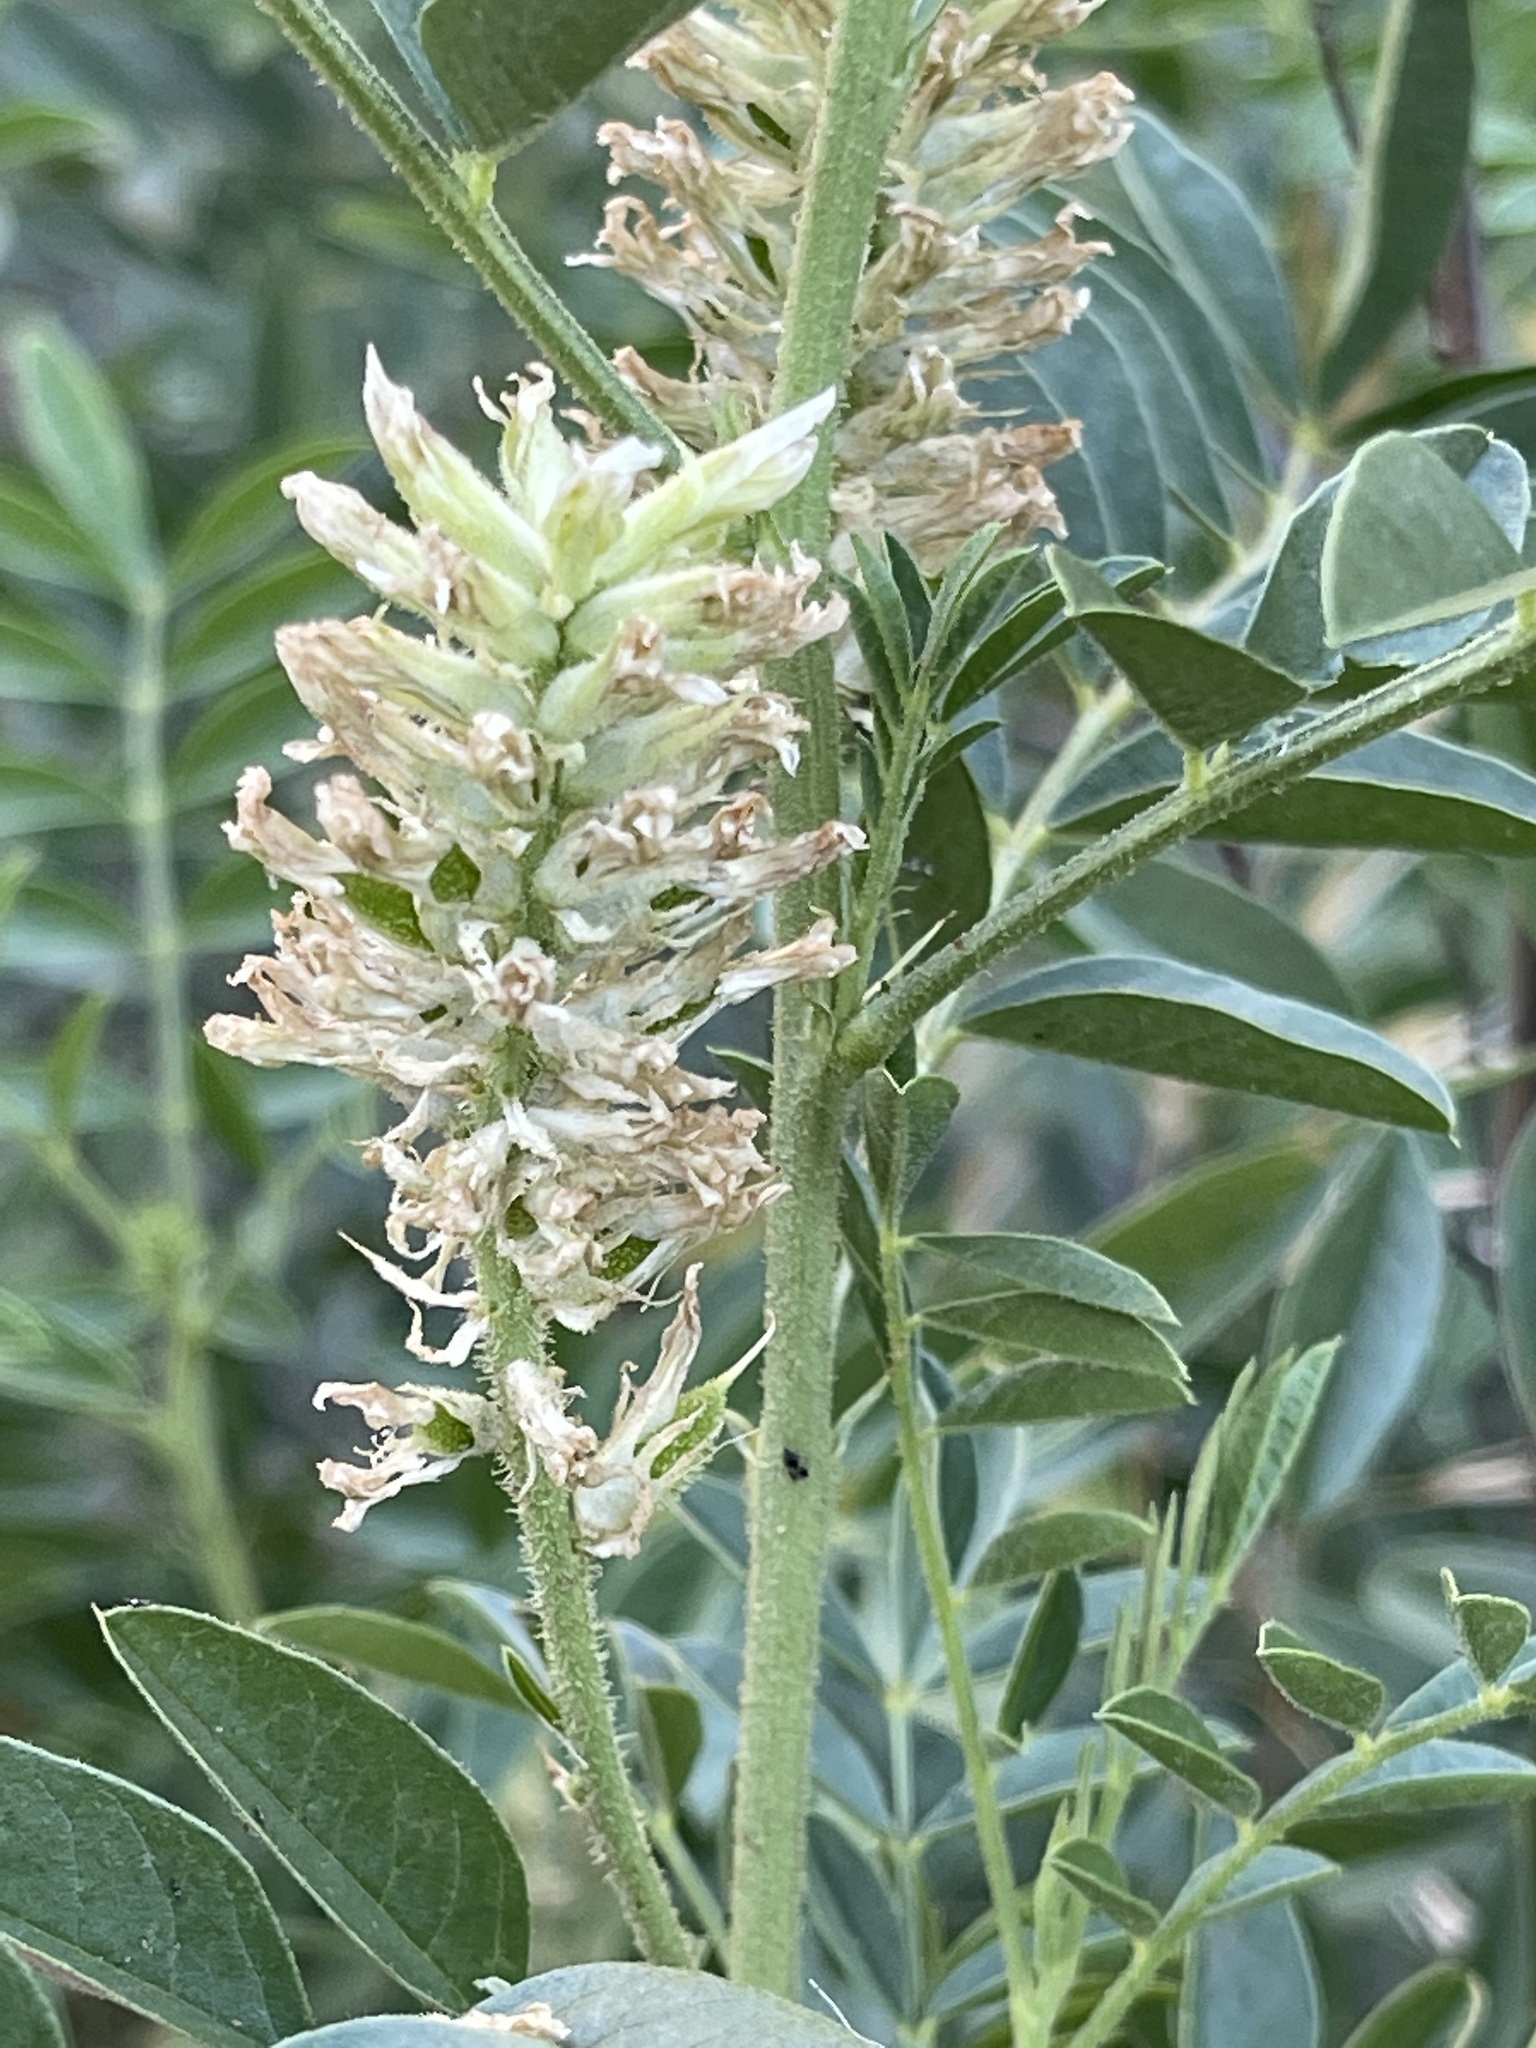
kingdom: Plantae
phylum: Tracheophyta
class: Magnoliopsida
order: Fabales
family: Fabaceae
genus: Glycyrrhiza
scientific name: Glycyrrhiza lepidota
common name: American liquorice
